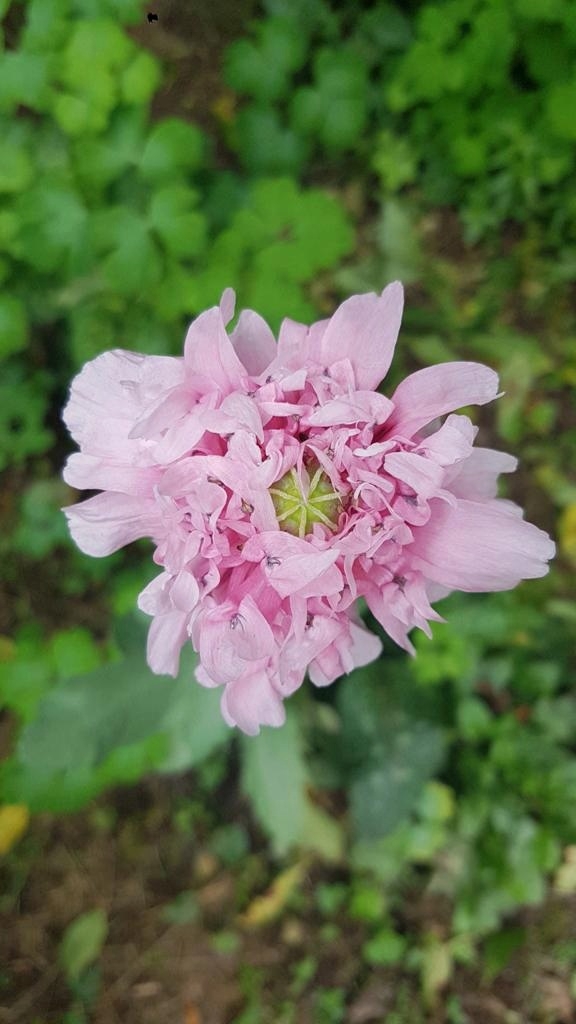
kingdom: Plantae
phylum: Tracheophyta
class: Magnoliopsida
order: Ranunculales
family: Papaveraceae
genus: Papaver
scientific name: Papaver somniferum
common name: Opium poppy
